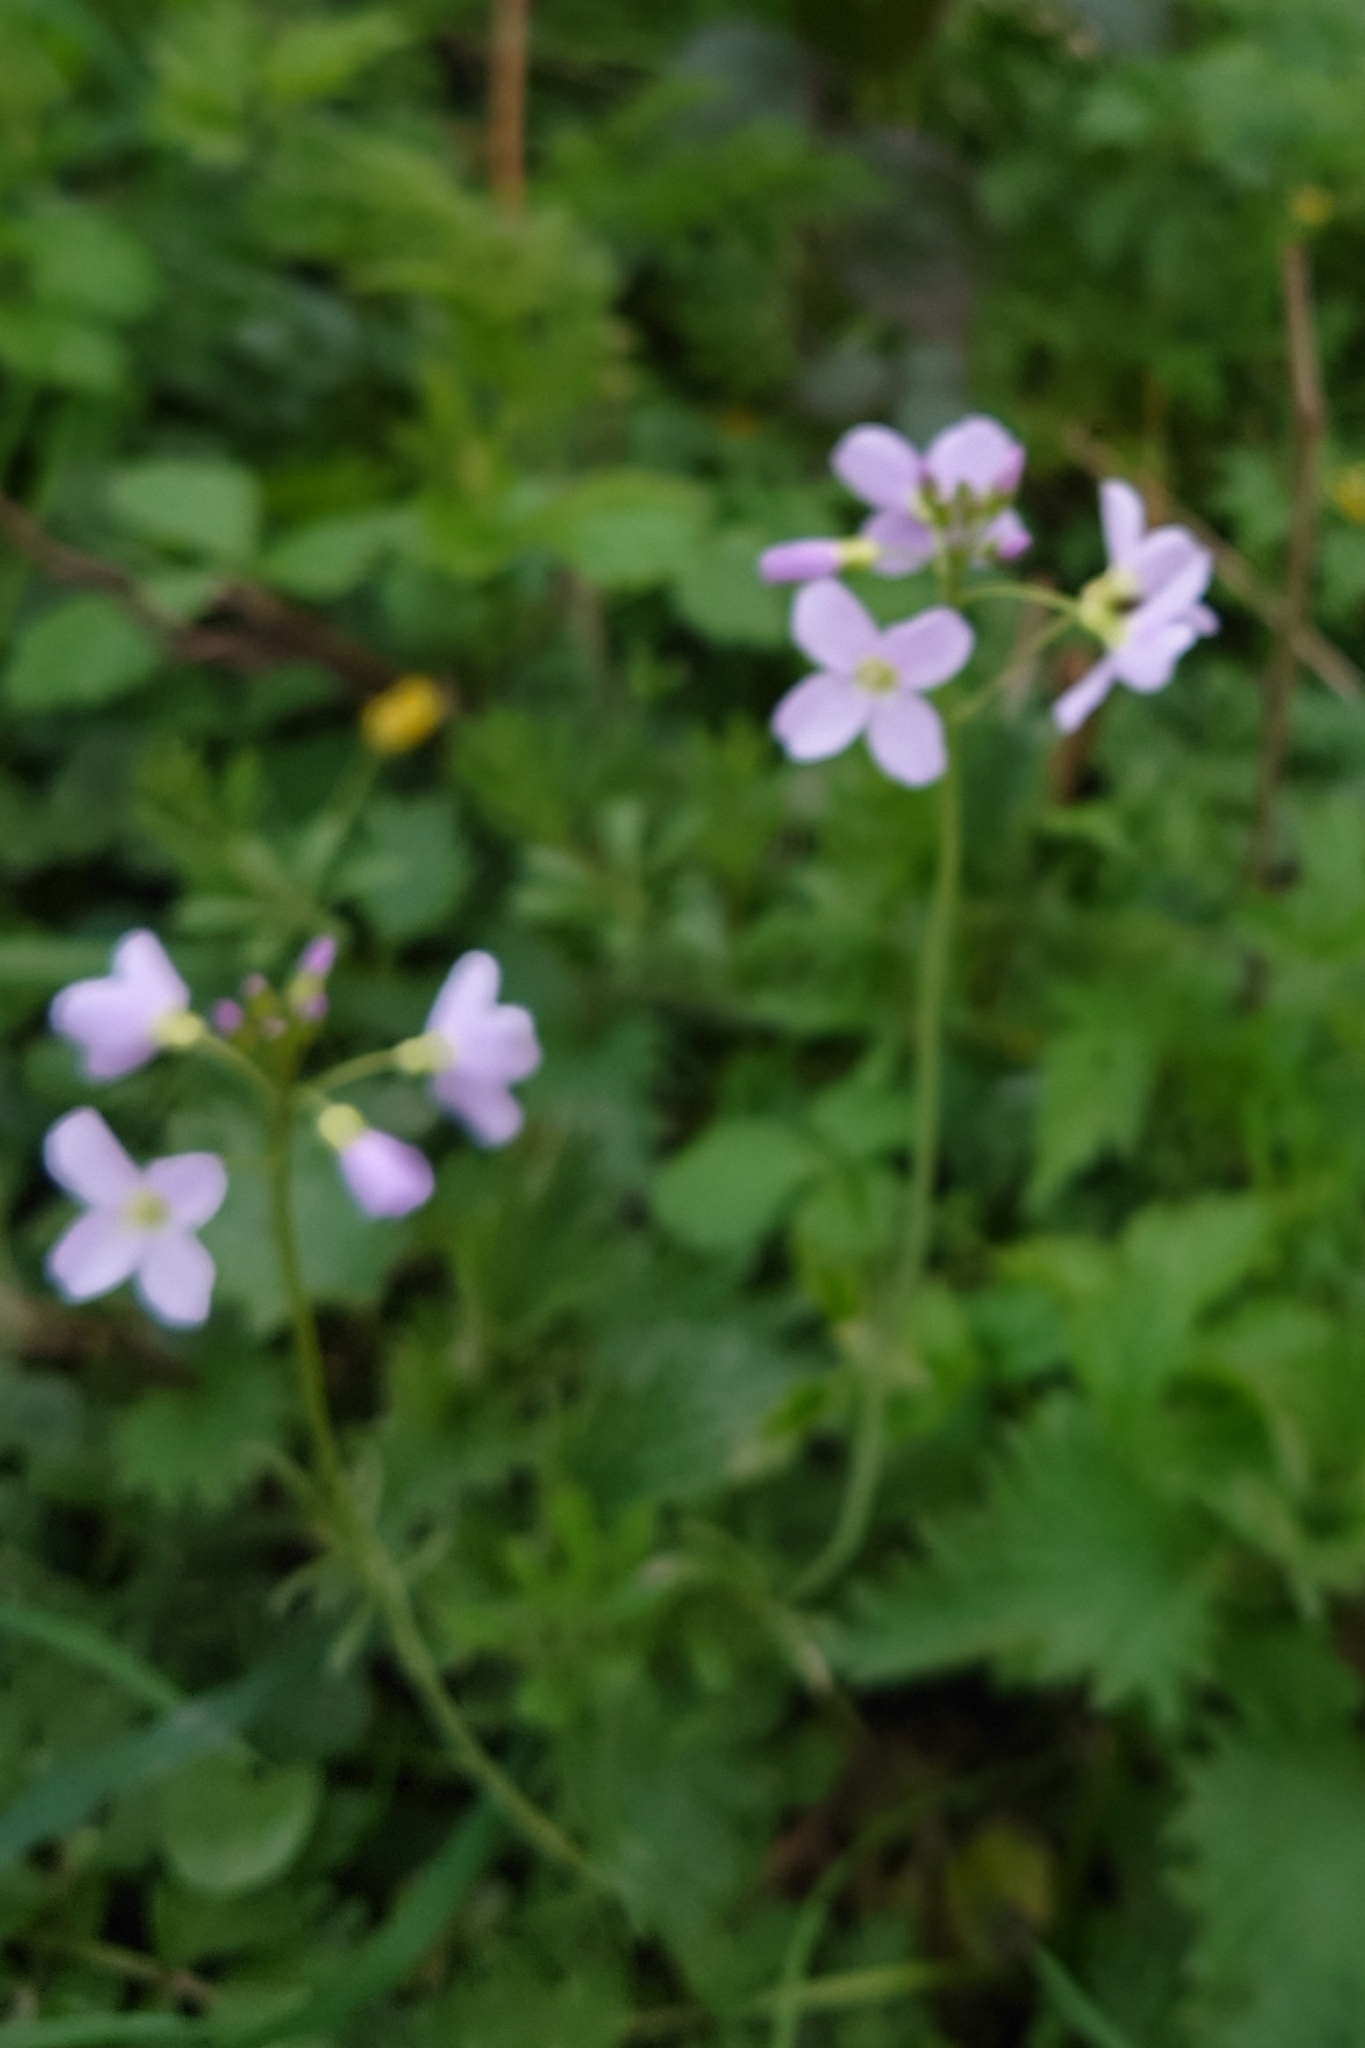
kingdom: Plantae
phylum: Tracheophyta
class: Magnoliopsida
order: Brassicales
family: Brassicaceae
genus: Cardamine
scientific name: Cardamine pratensis
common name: Cuckoo flower
